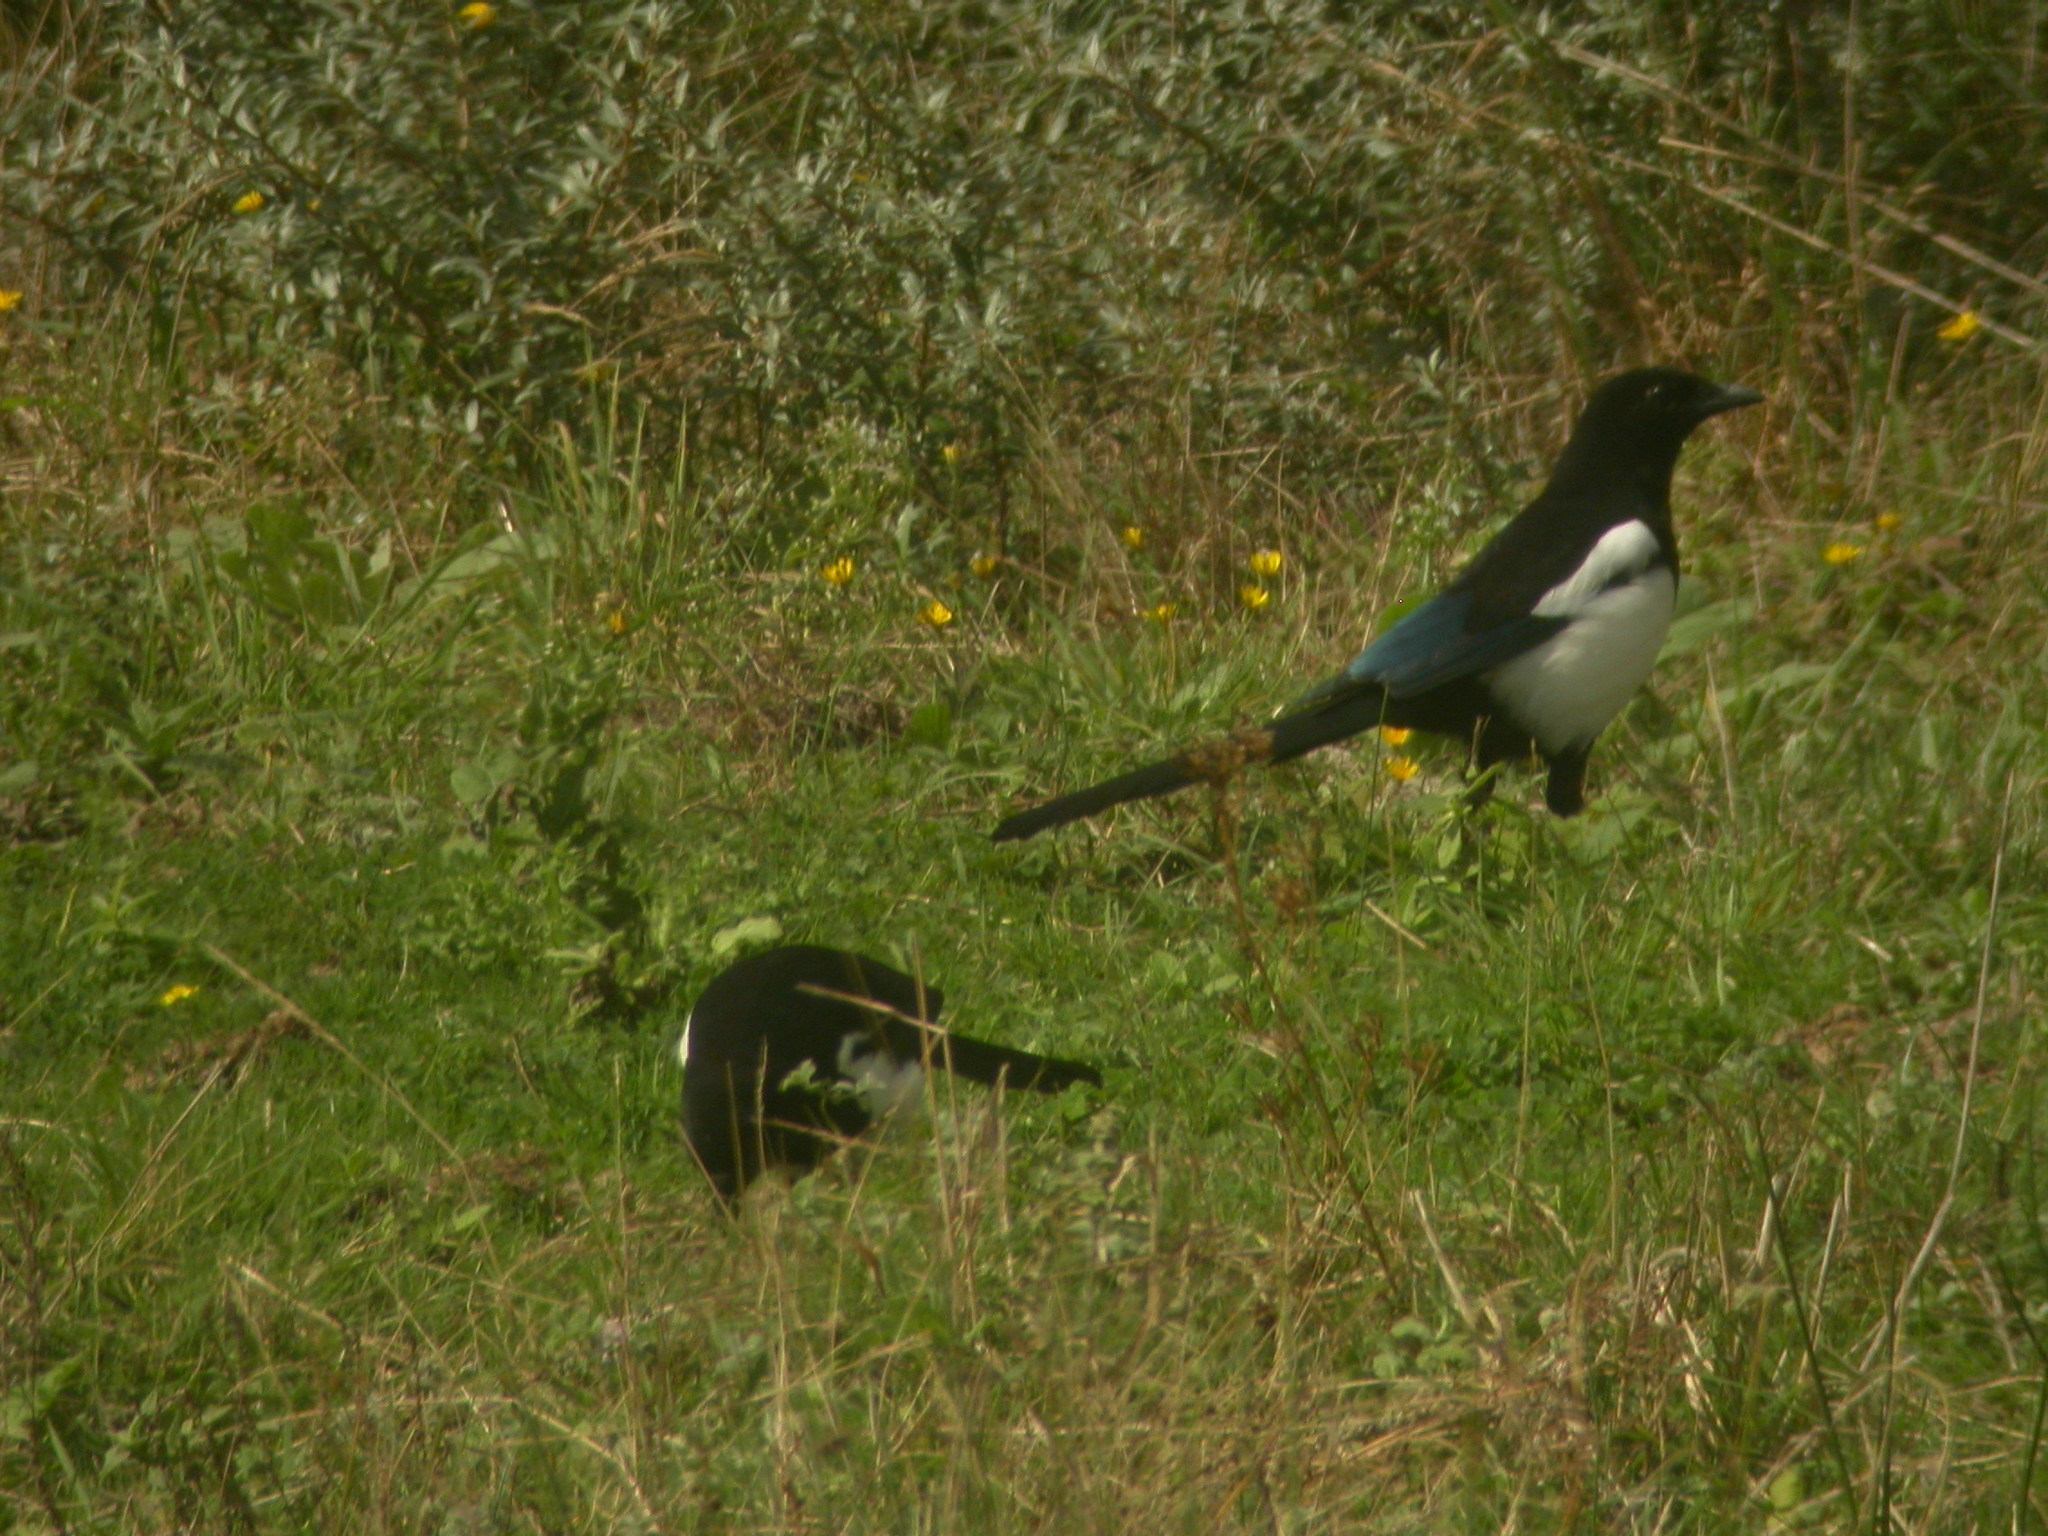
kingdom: Animalia
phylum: Chordata
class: Aves
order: Passeriformes
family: Corvidae
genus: Pica
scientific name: Pica pica
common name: Eurasian magpie
